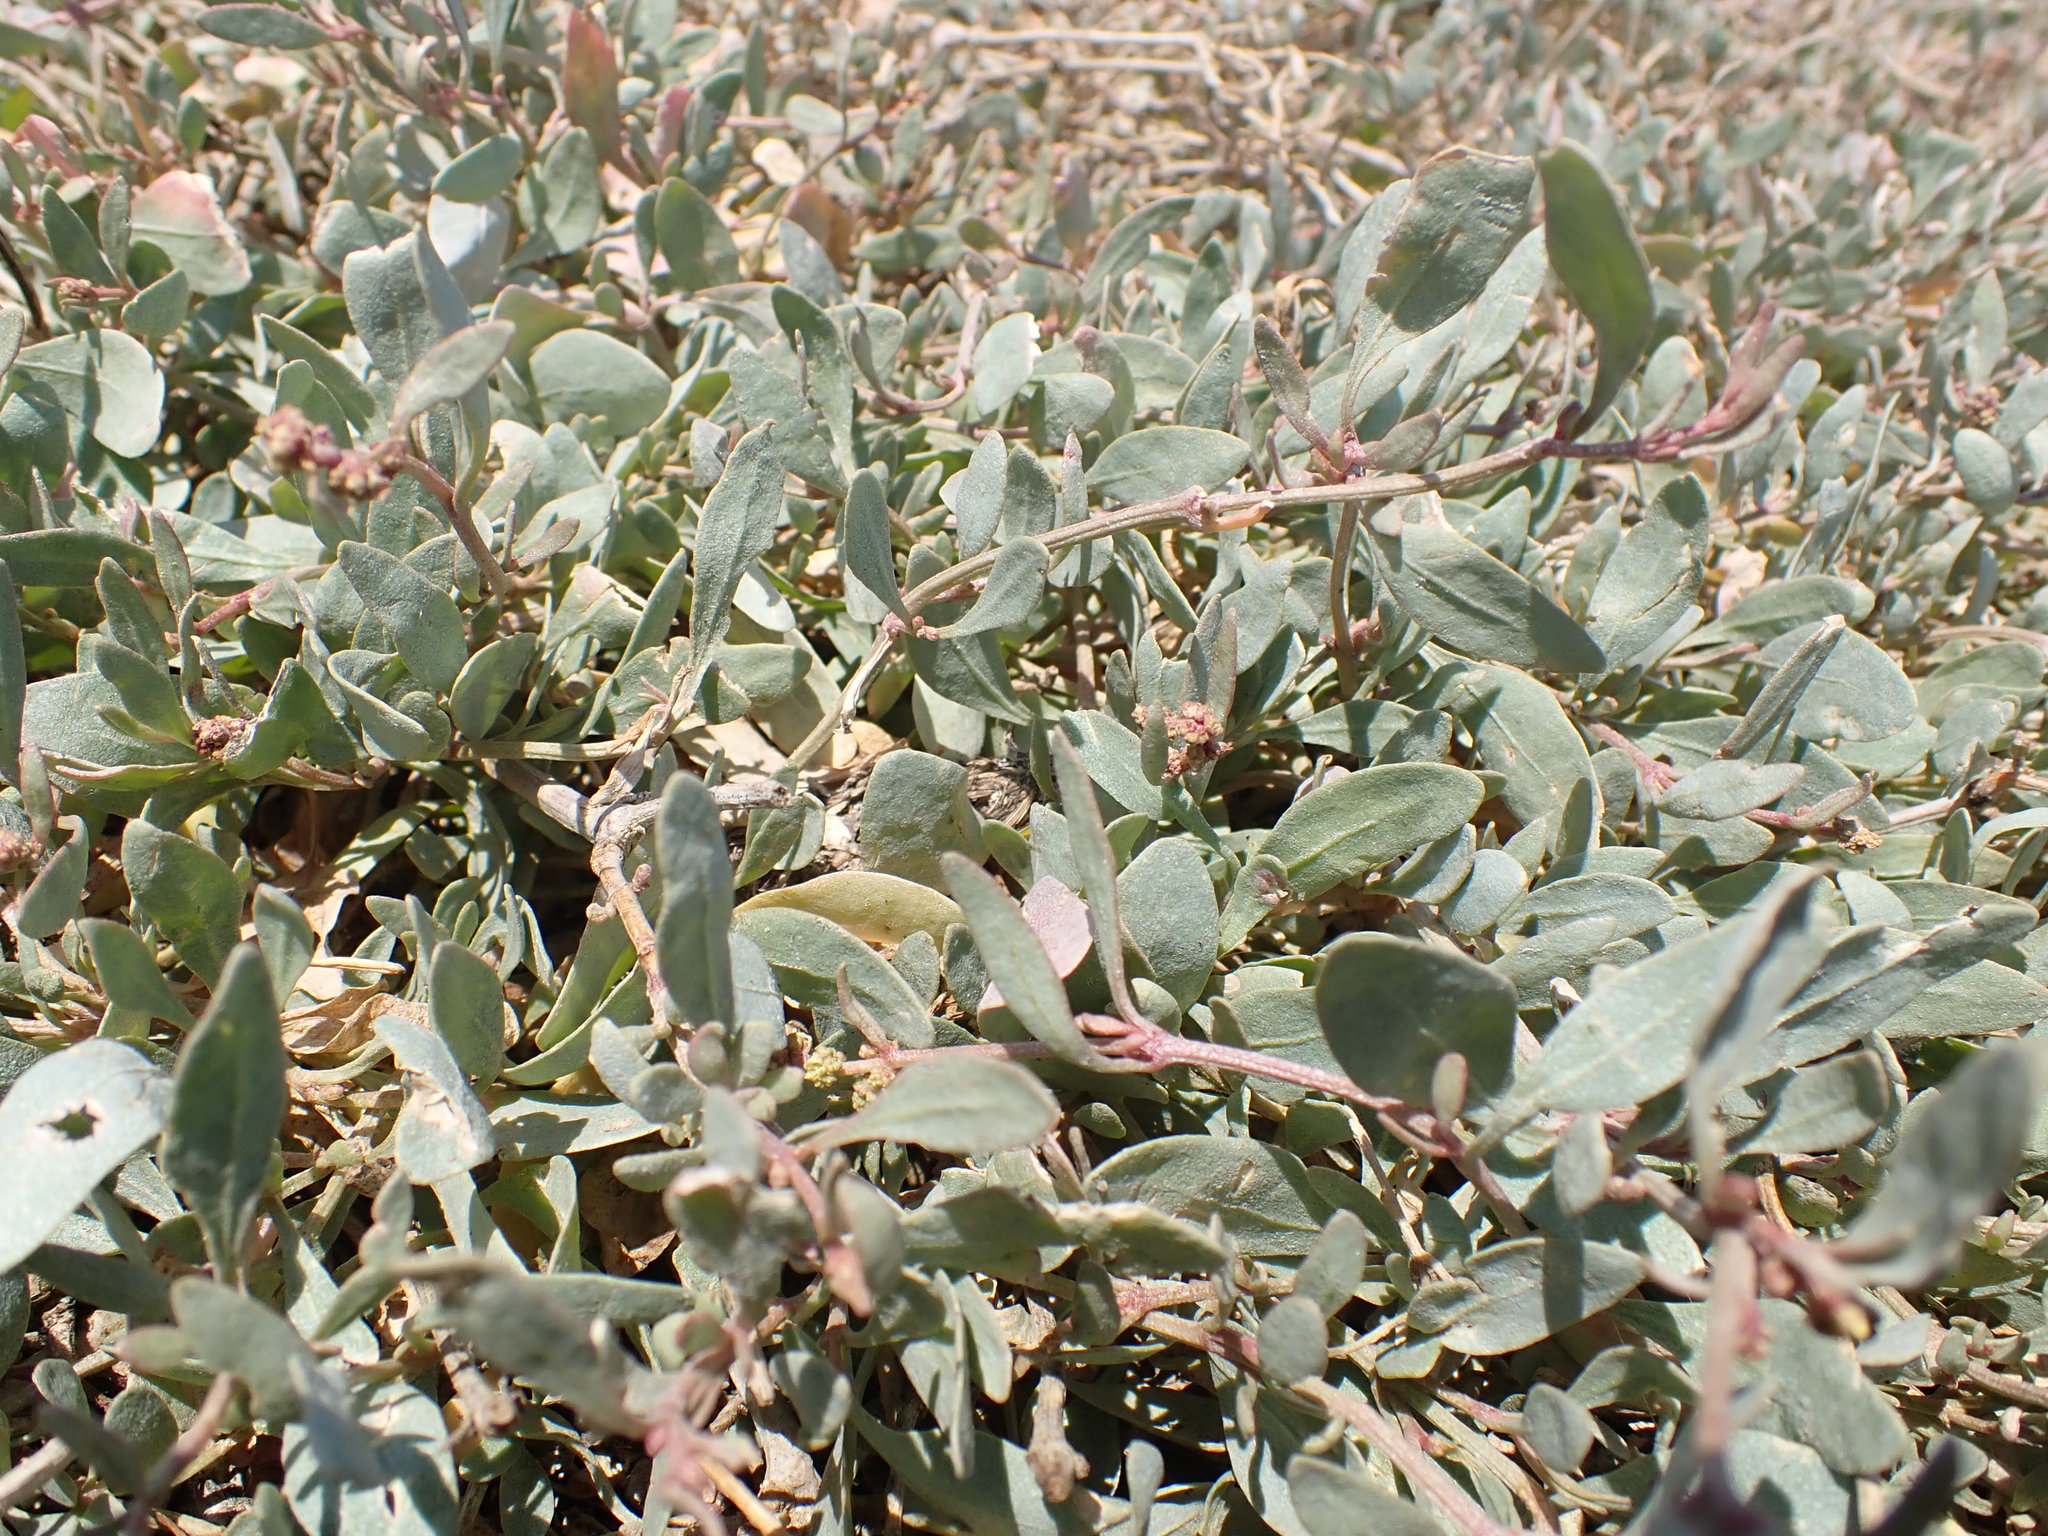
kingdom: Plantae
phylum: Tracheophyta
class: Magnoliopsida
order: Caryophyllales
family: Amaranthaceae
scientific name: Amaranthaceae
